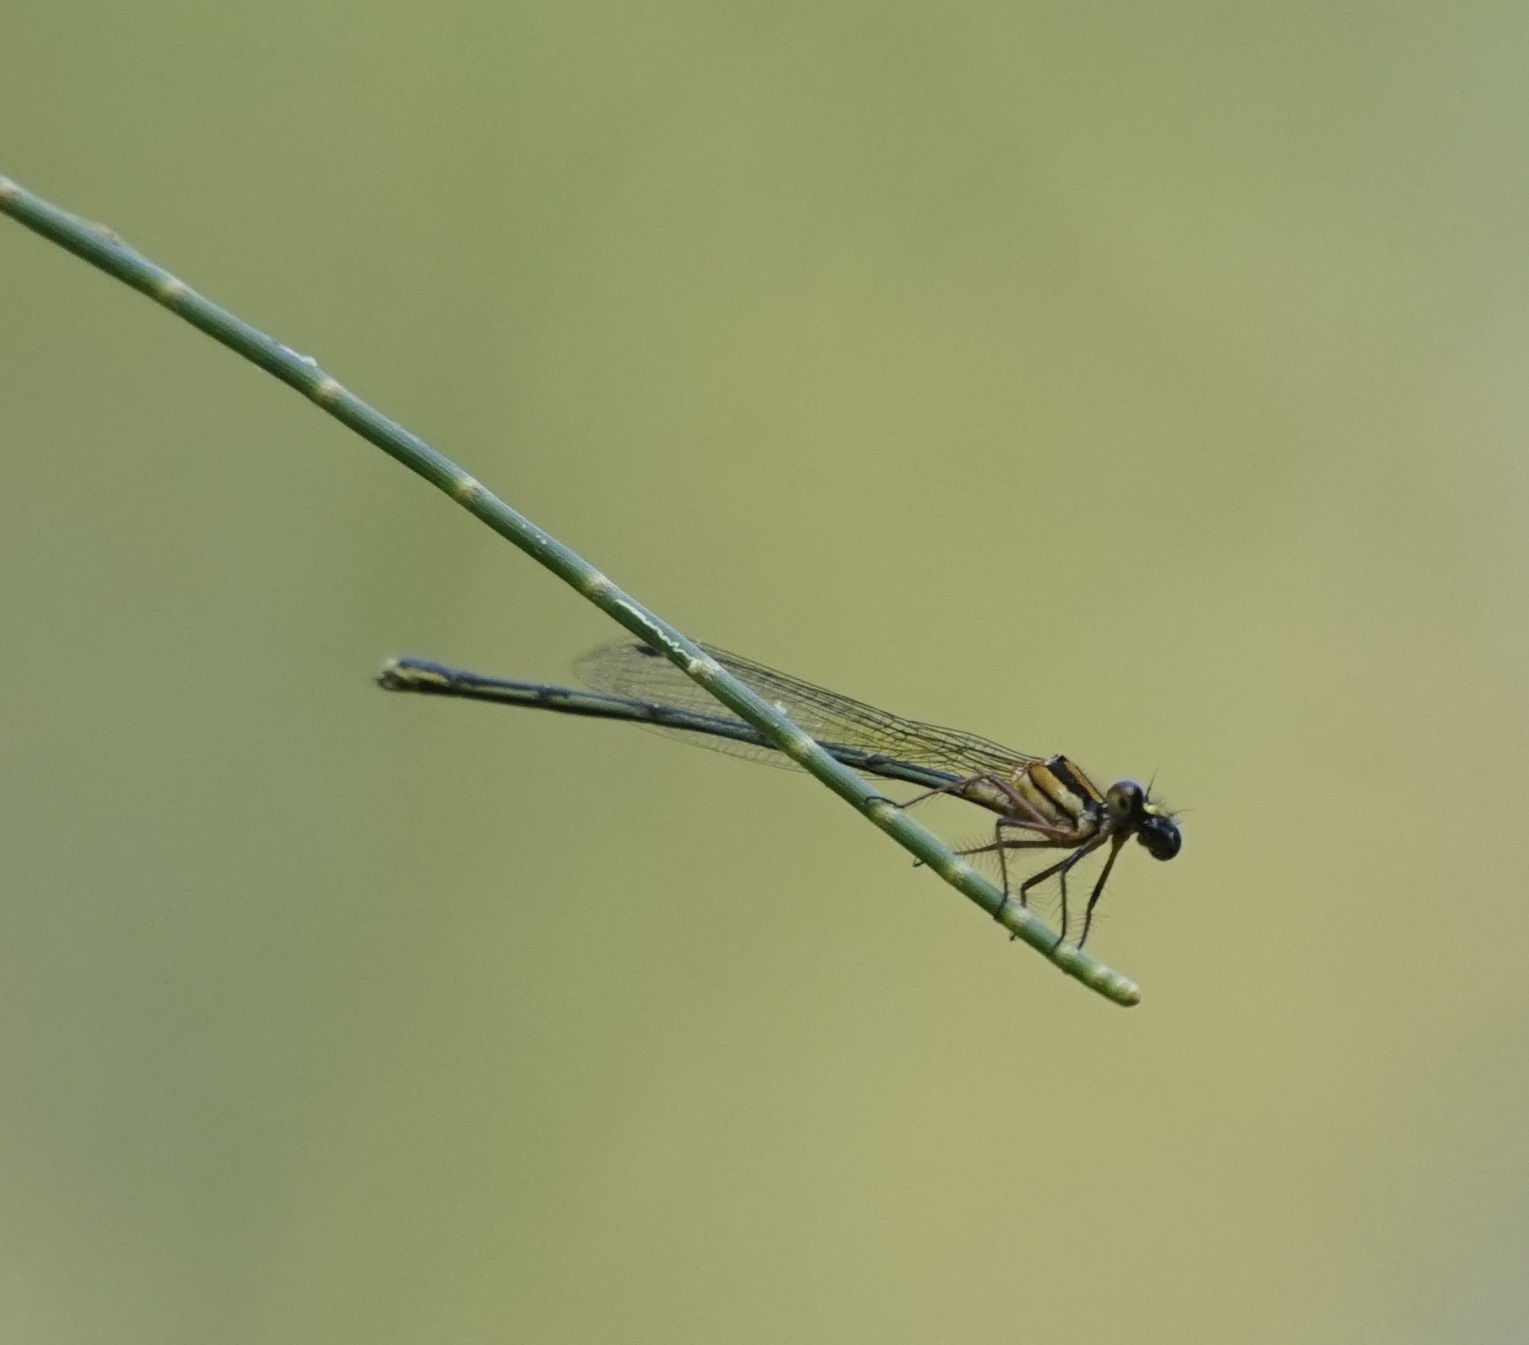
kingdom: Animalia
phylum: Arthropoda
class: Insecta
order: Odonata
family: Platycnemididae
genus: Nososticta
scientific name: Nososticta solida
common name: Orange threadtail
